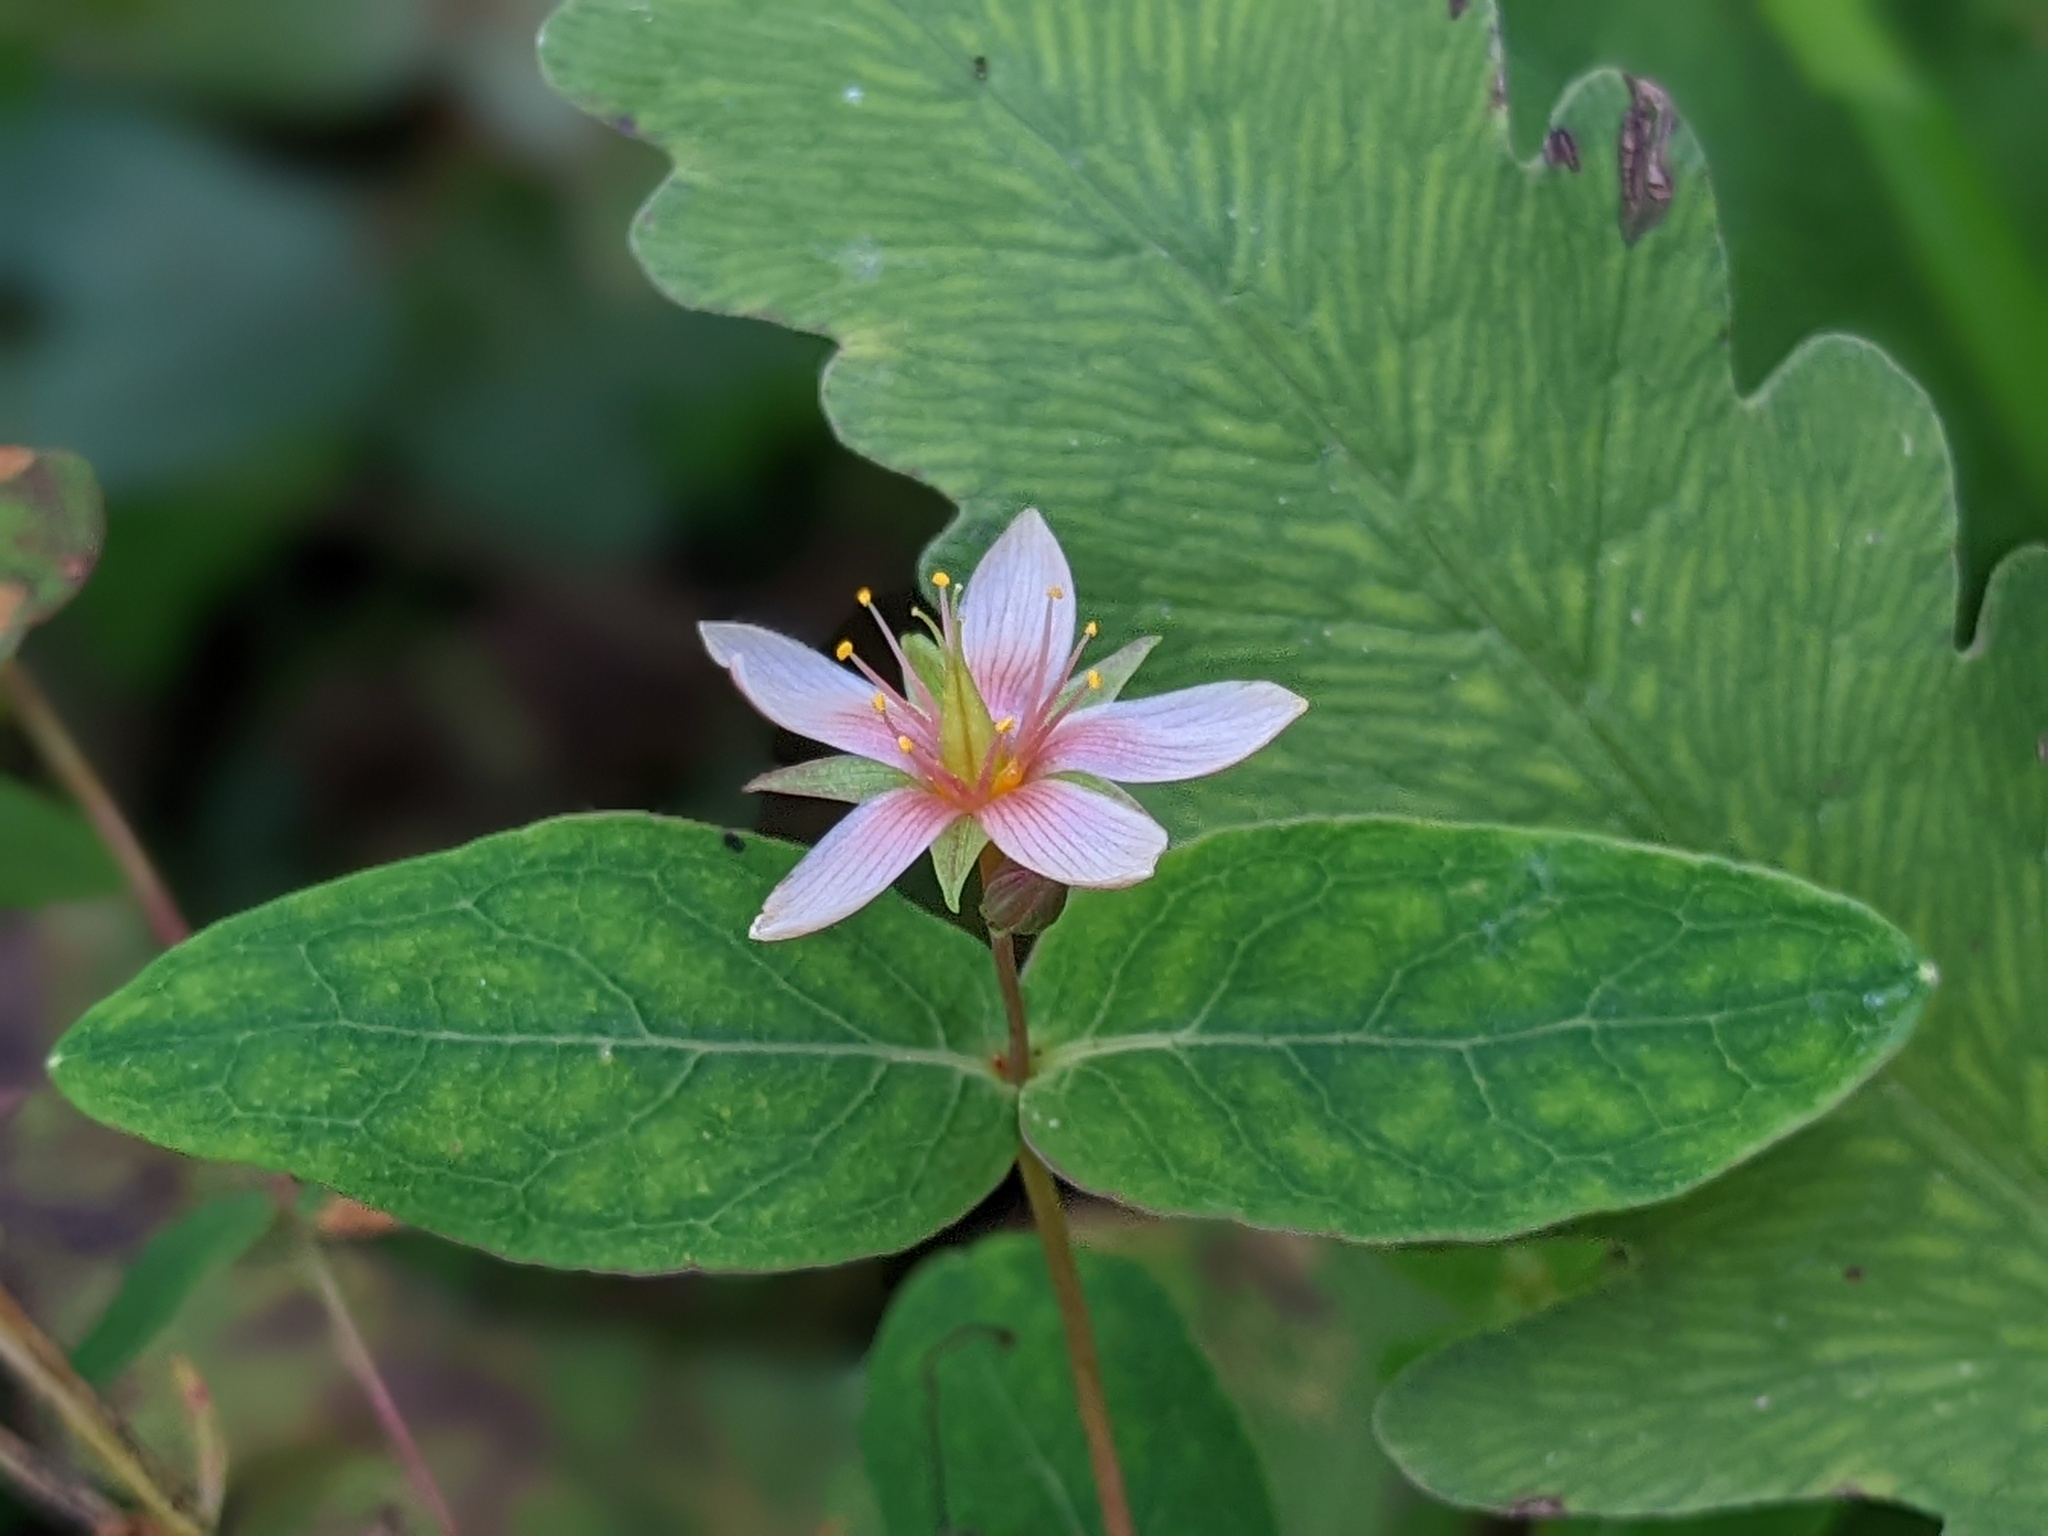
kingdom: Plantae
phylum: Tracheophyta
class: Magnoliopsida
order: Malpighiales
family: Hypericaceae
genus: Triadenum
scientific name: Triadenum virginicum
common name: Marsh st. john's-wort
